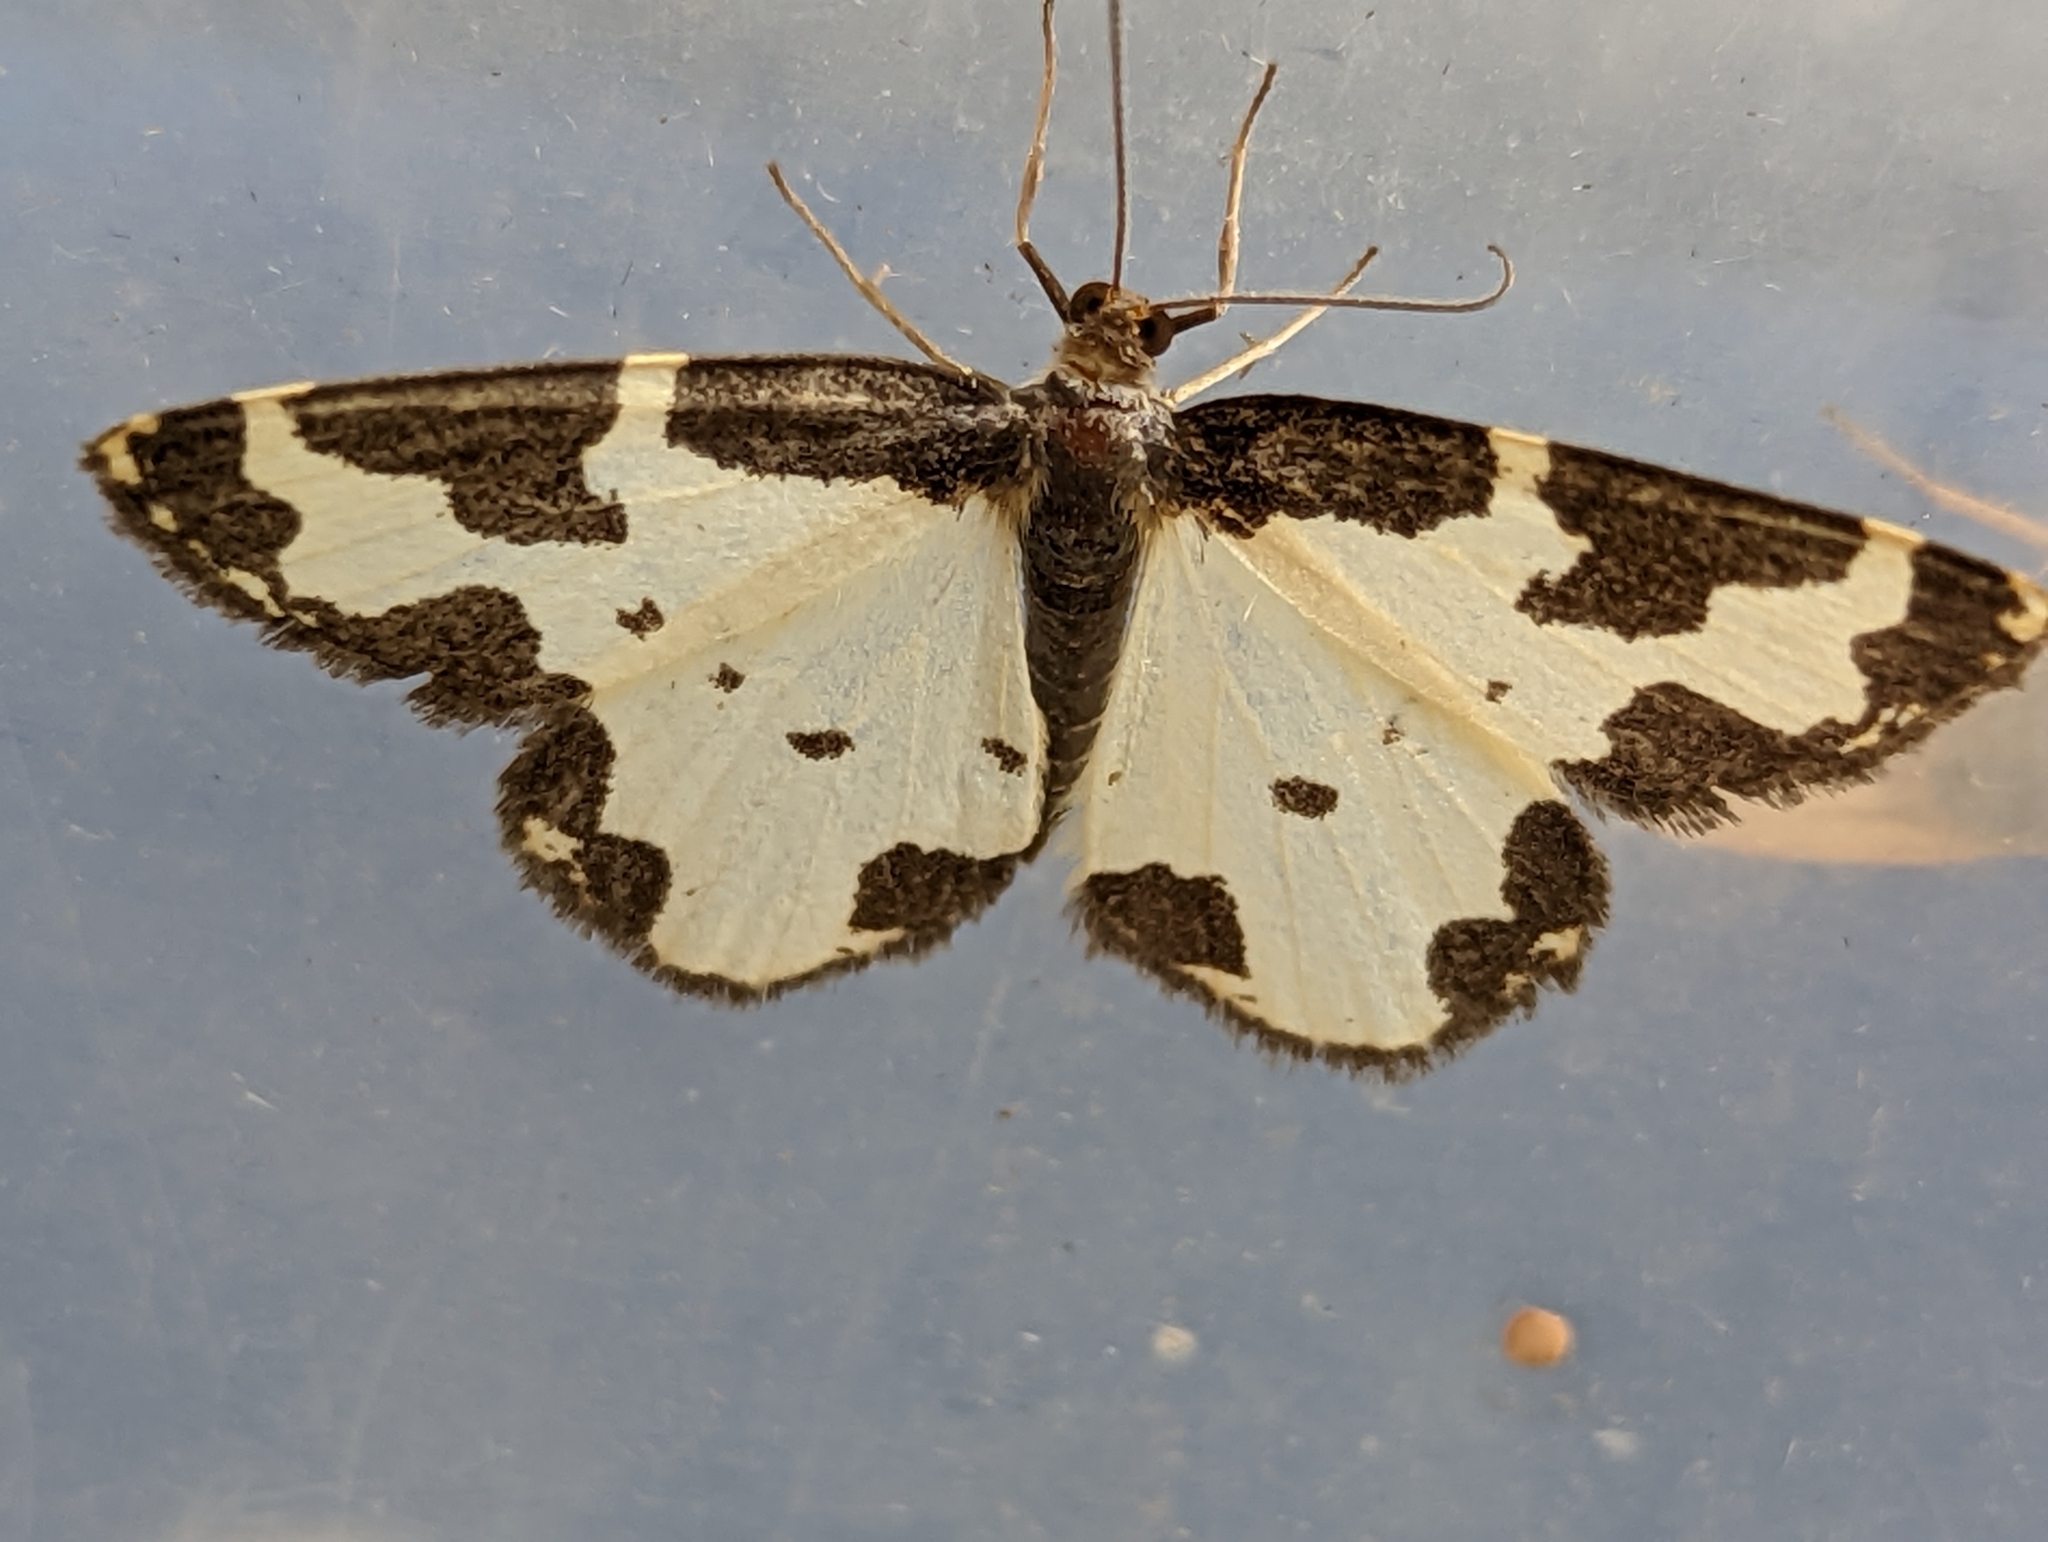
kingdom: Animalia
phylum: Arthropoda
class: Insecta
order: Lepidoptera
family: Geometridae
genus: Lomaspilis
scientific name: Lomaspilis marginata
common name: Clouded border
